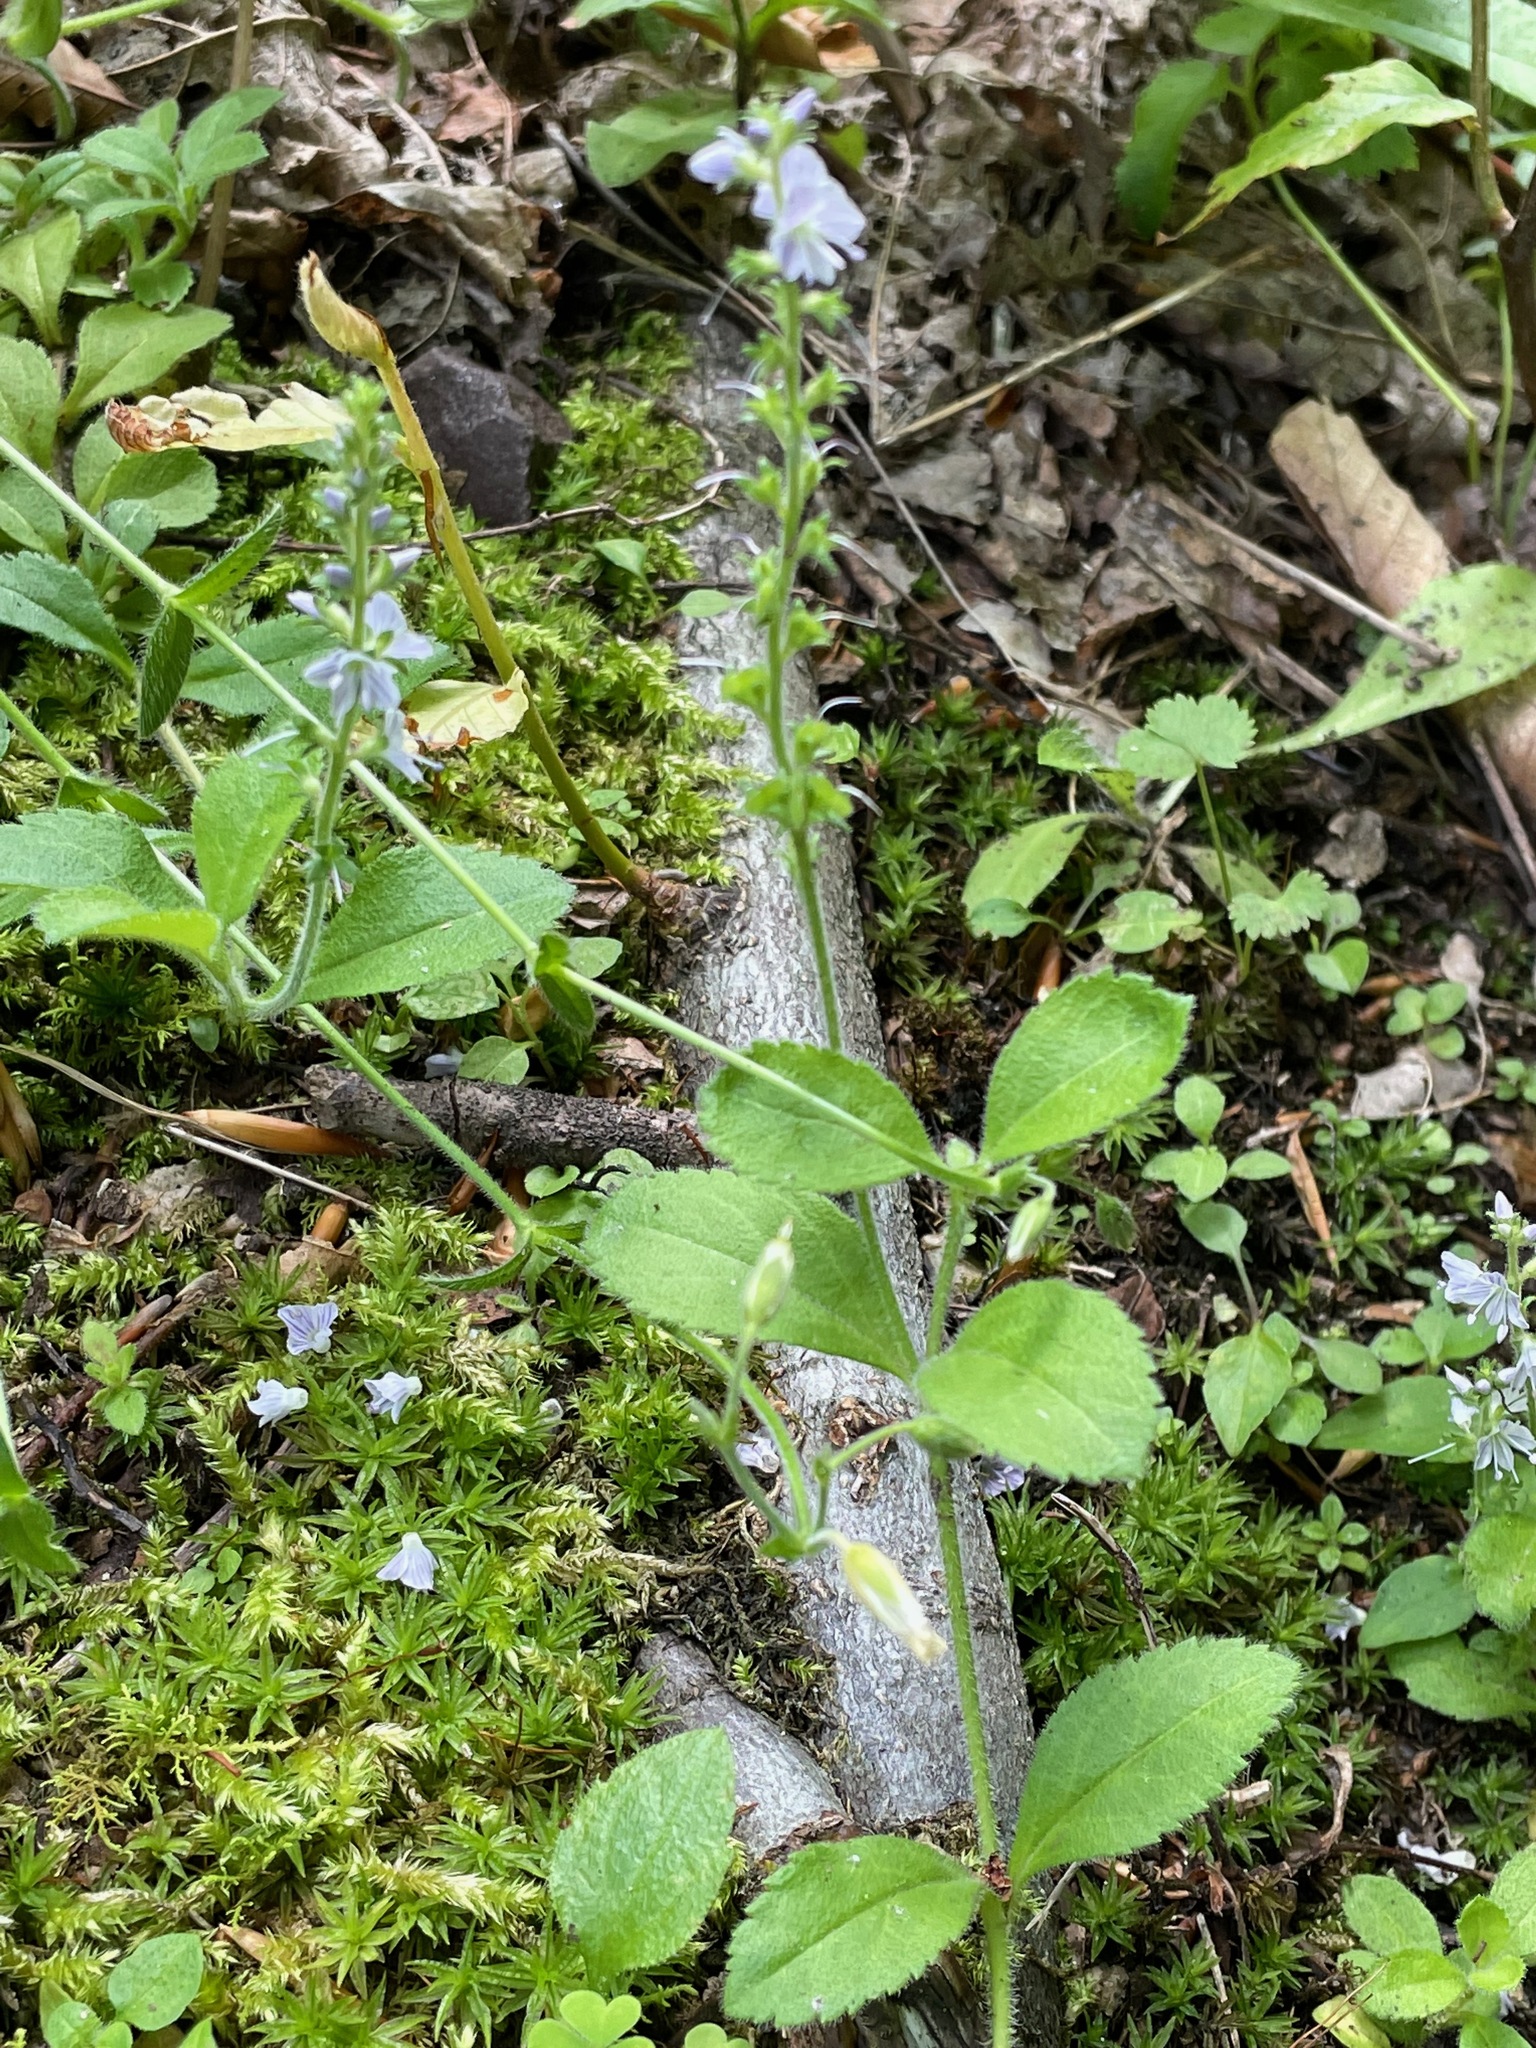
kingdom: Plantae
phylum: Tracheophyta
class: Magnoliopsida
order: Lamiales
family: Plantaginaceae
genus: Veronica
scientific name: Veronica officinalis
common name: Common speedwell
